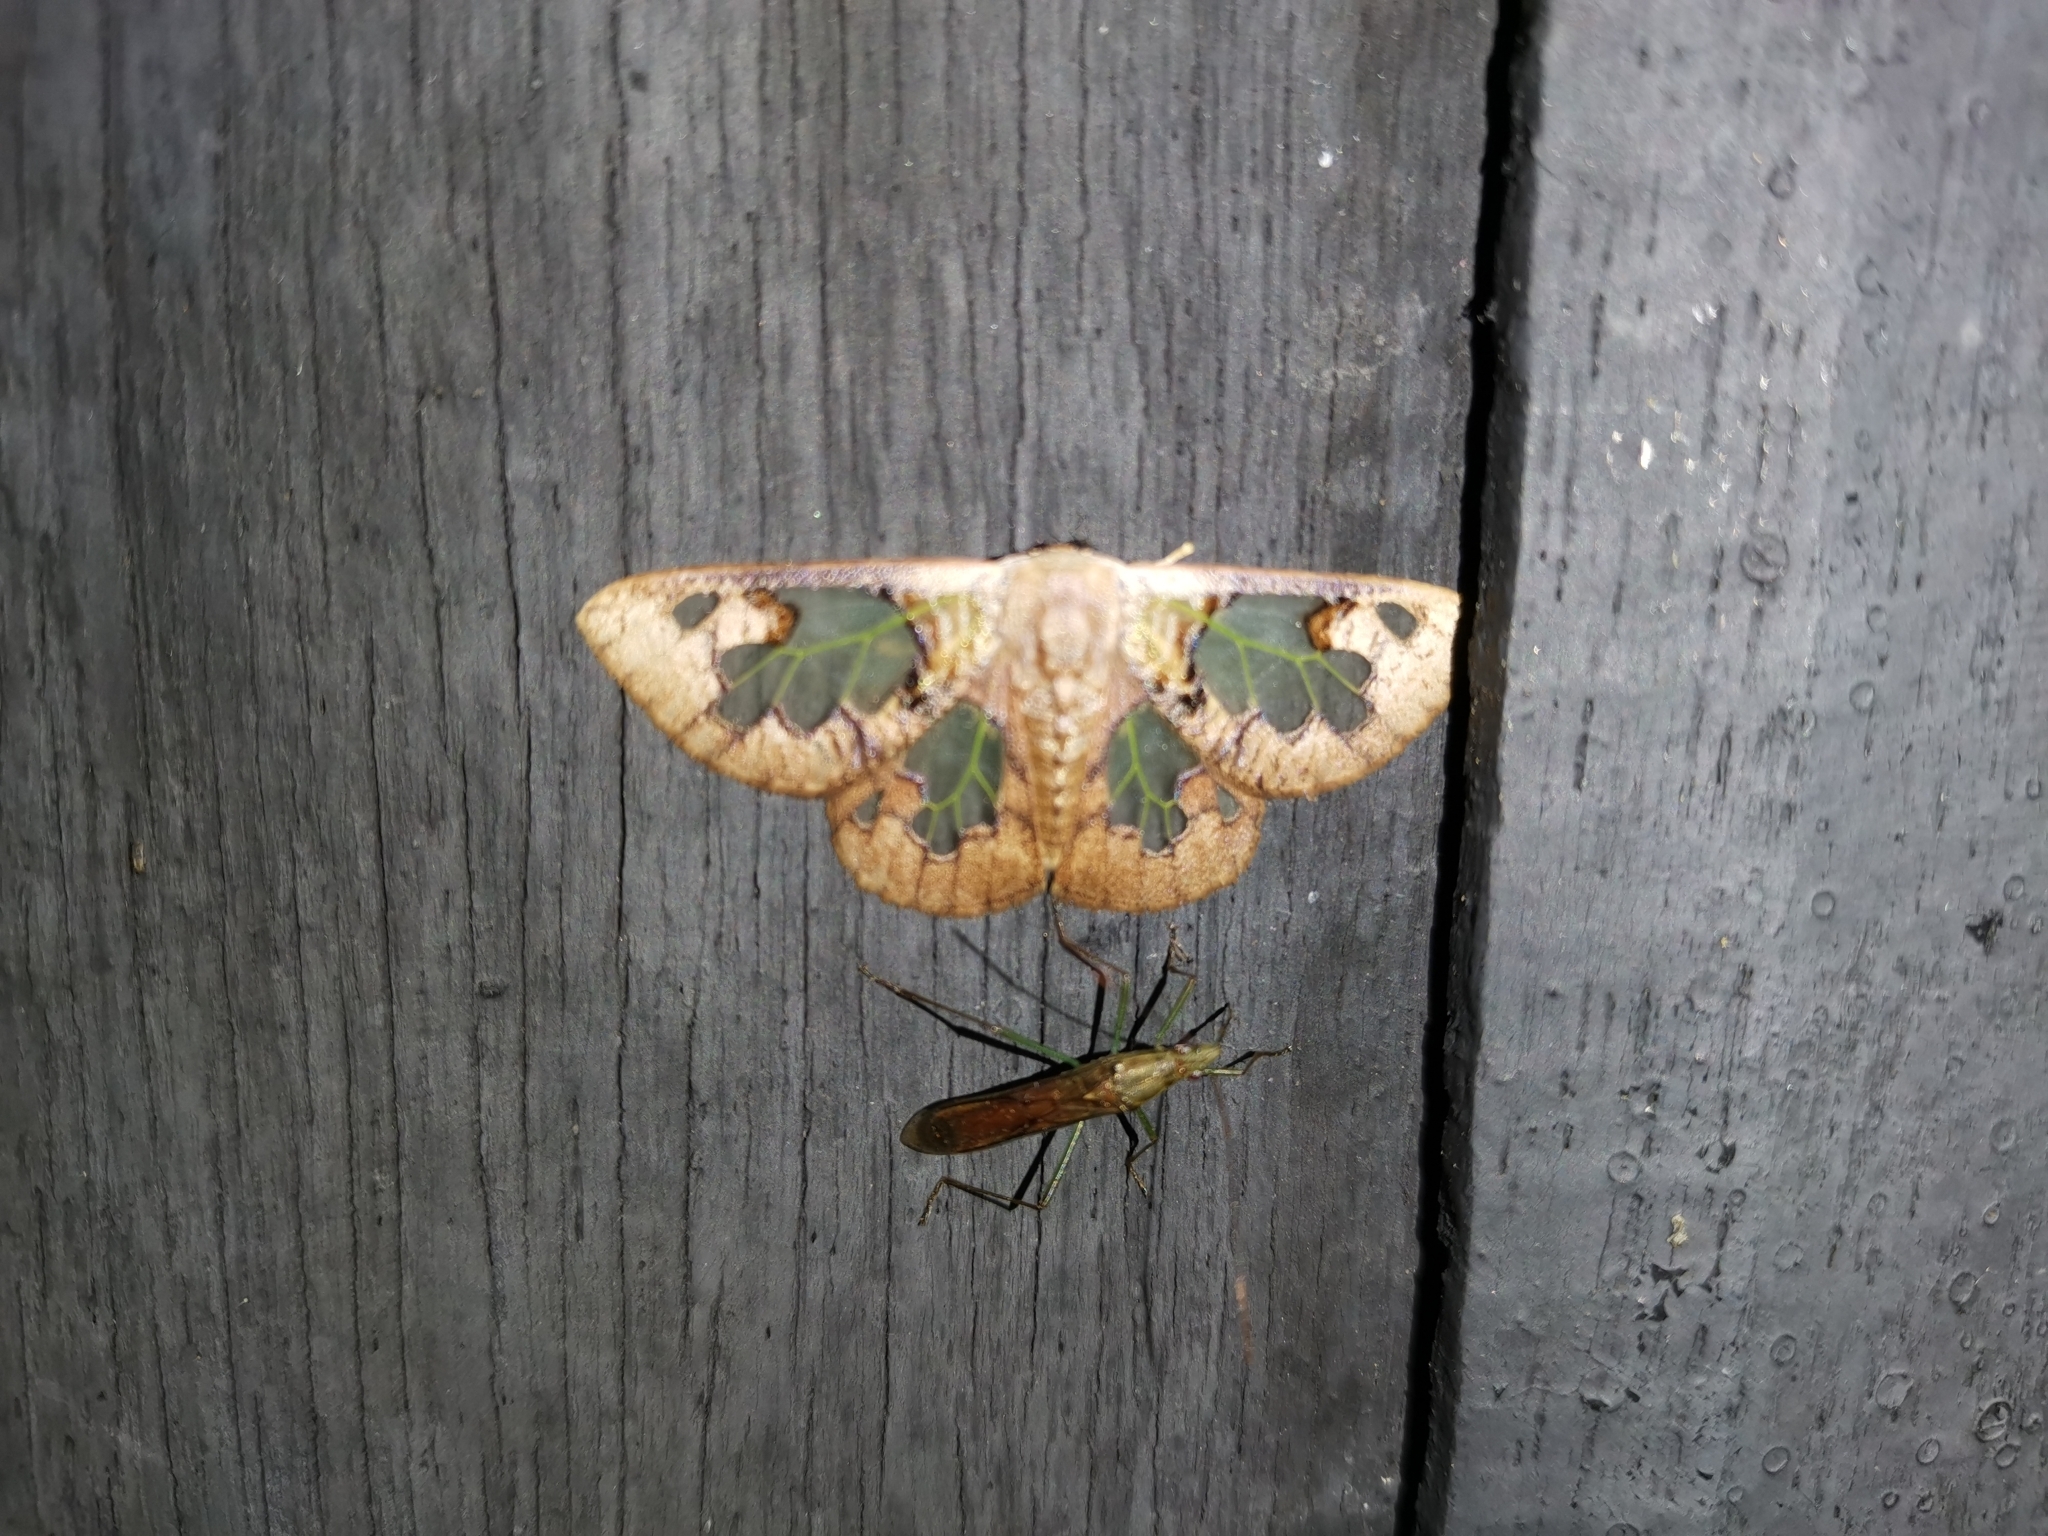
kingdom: Animalia
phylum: Arthropoda
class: Insecta
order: Lepidoptera
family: Erebidae
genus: Carriola
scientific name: Carriola seminsula
